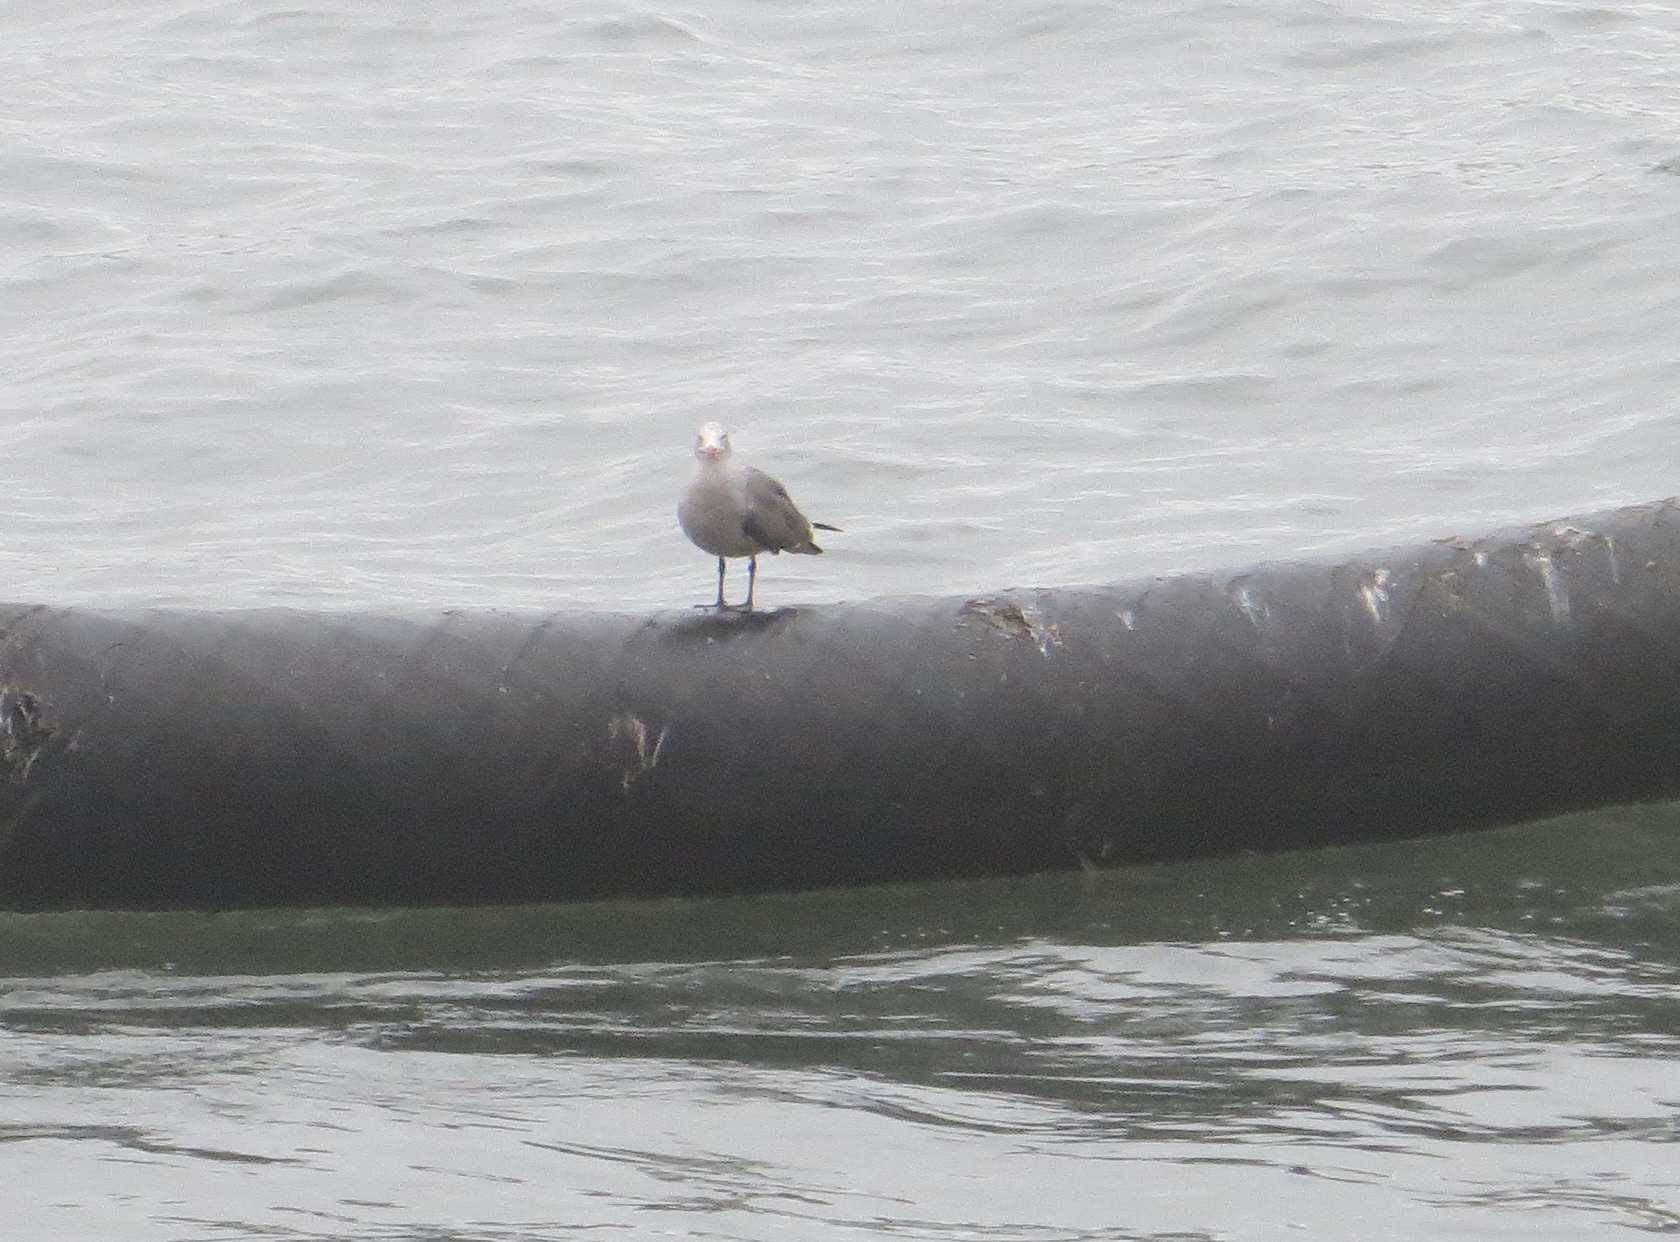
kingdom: Animalia
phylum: Chordata
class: Aves
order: Charadriiformes
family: Laridae
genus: Larus
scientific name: Larus heermanni
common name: Heermann's gull
